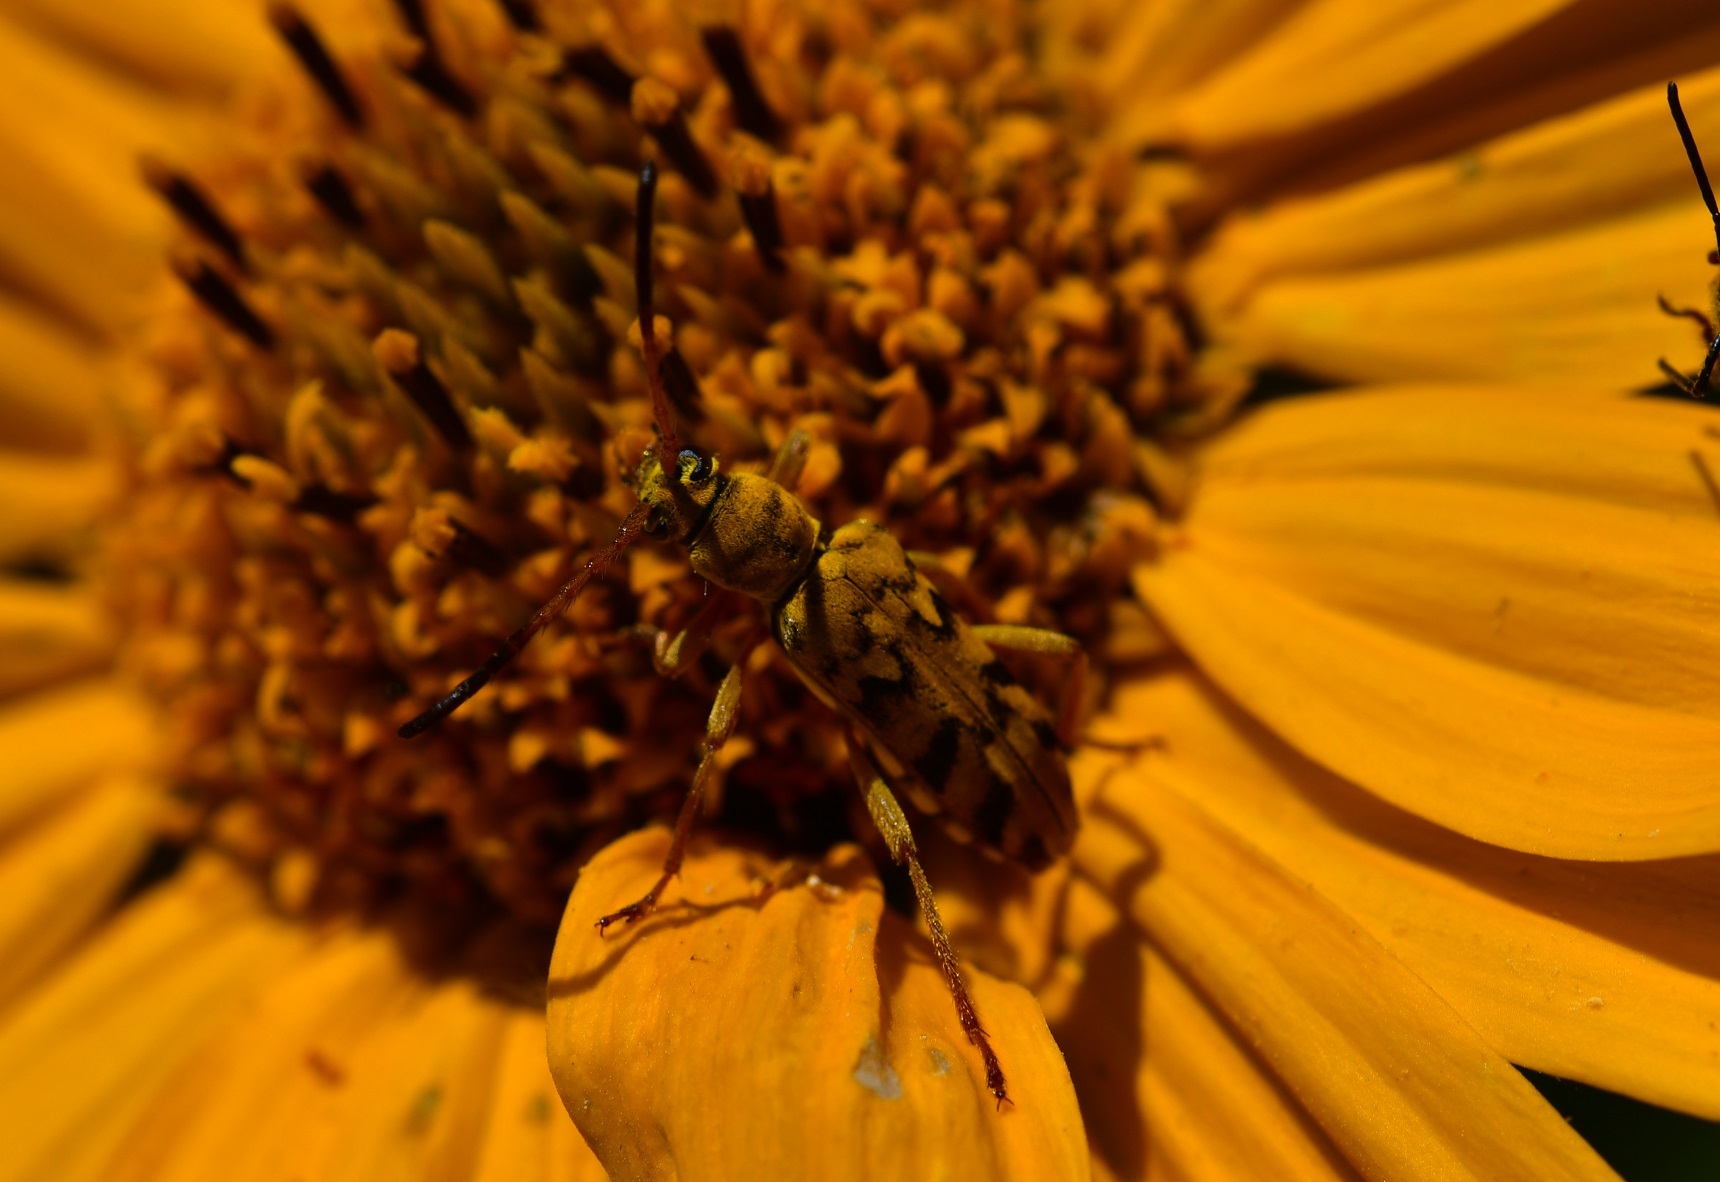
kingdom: Animalia
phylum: Arthropoda
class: Insecta
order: Coleoptera
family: Cerambycidae
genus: Ochraethes
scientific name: Ochraethes pollinosus
